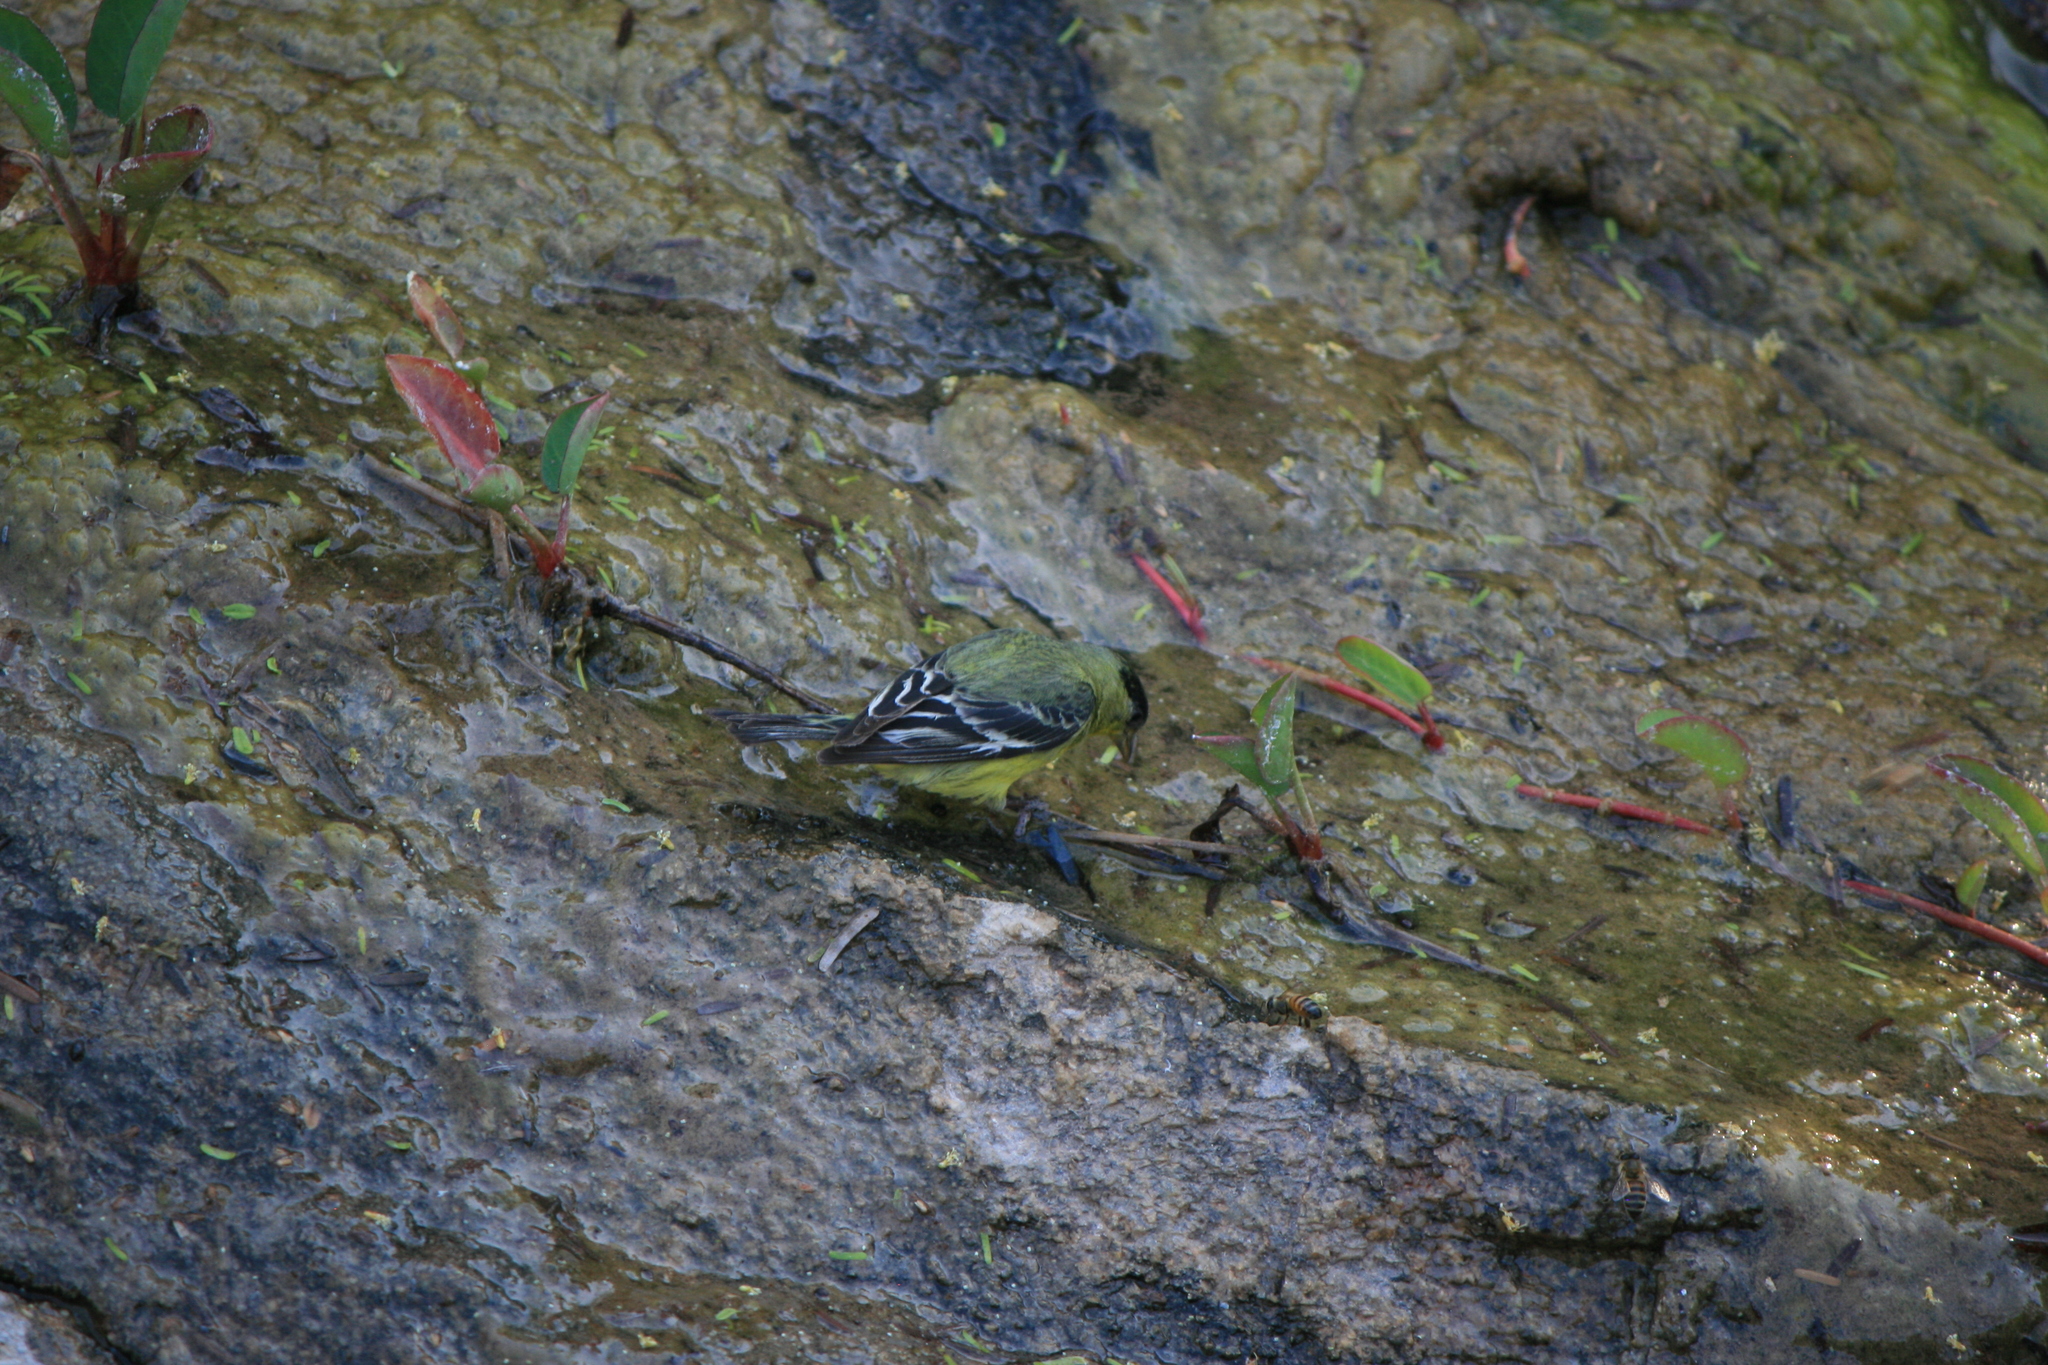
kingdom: Animalia
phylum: Chordata
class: Aves
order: Passeriformes
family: Fringillidae
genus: Spinus
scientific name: Spinus psaltria
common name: Lesser goldfinch
